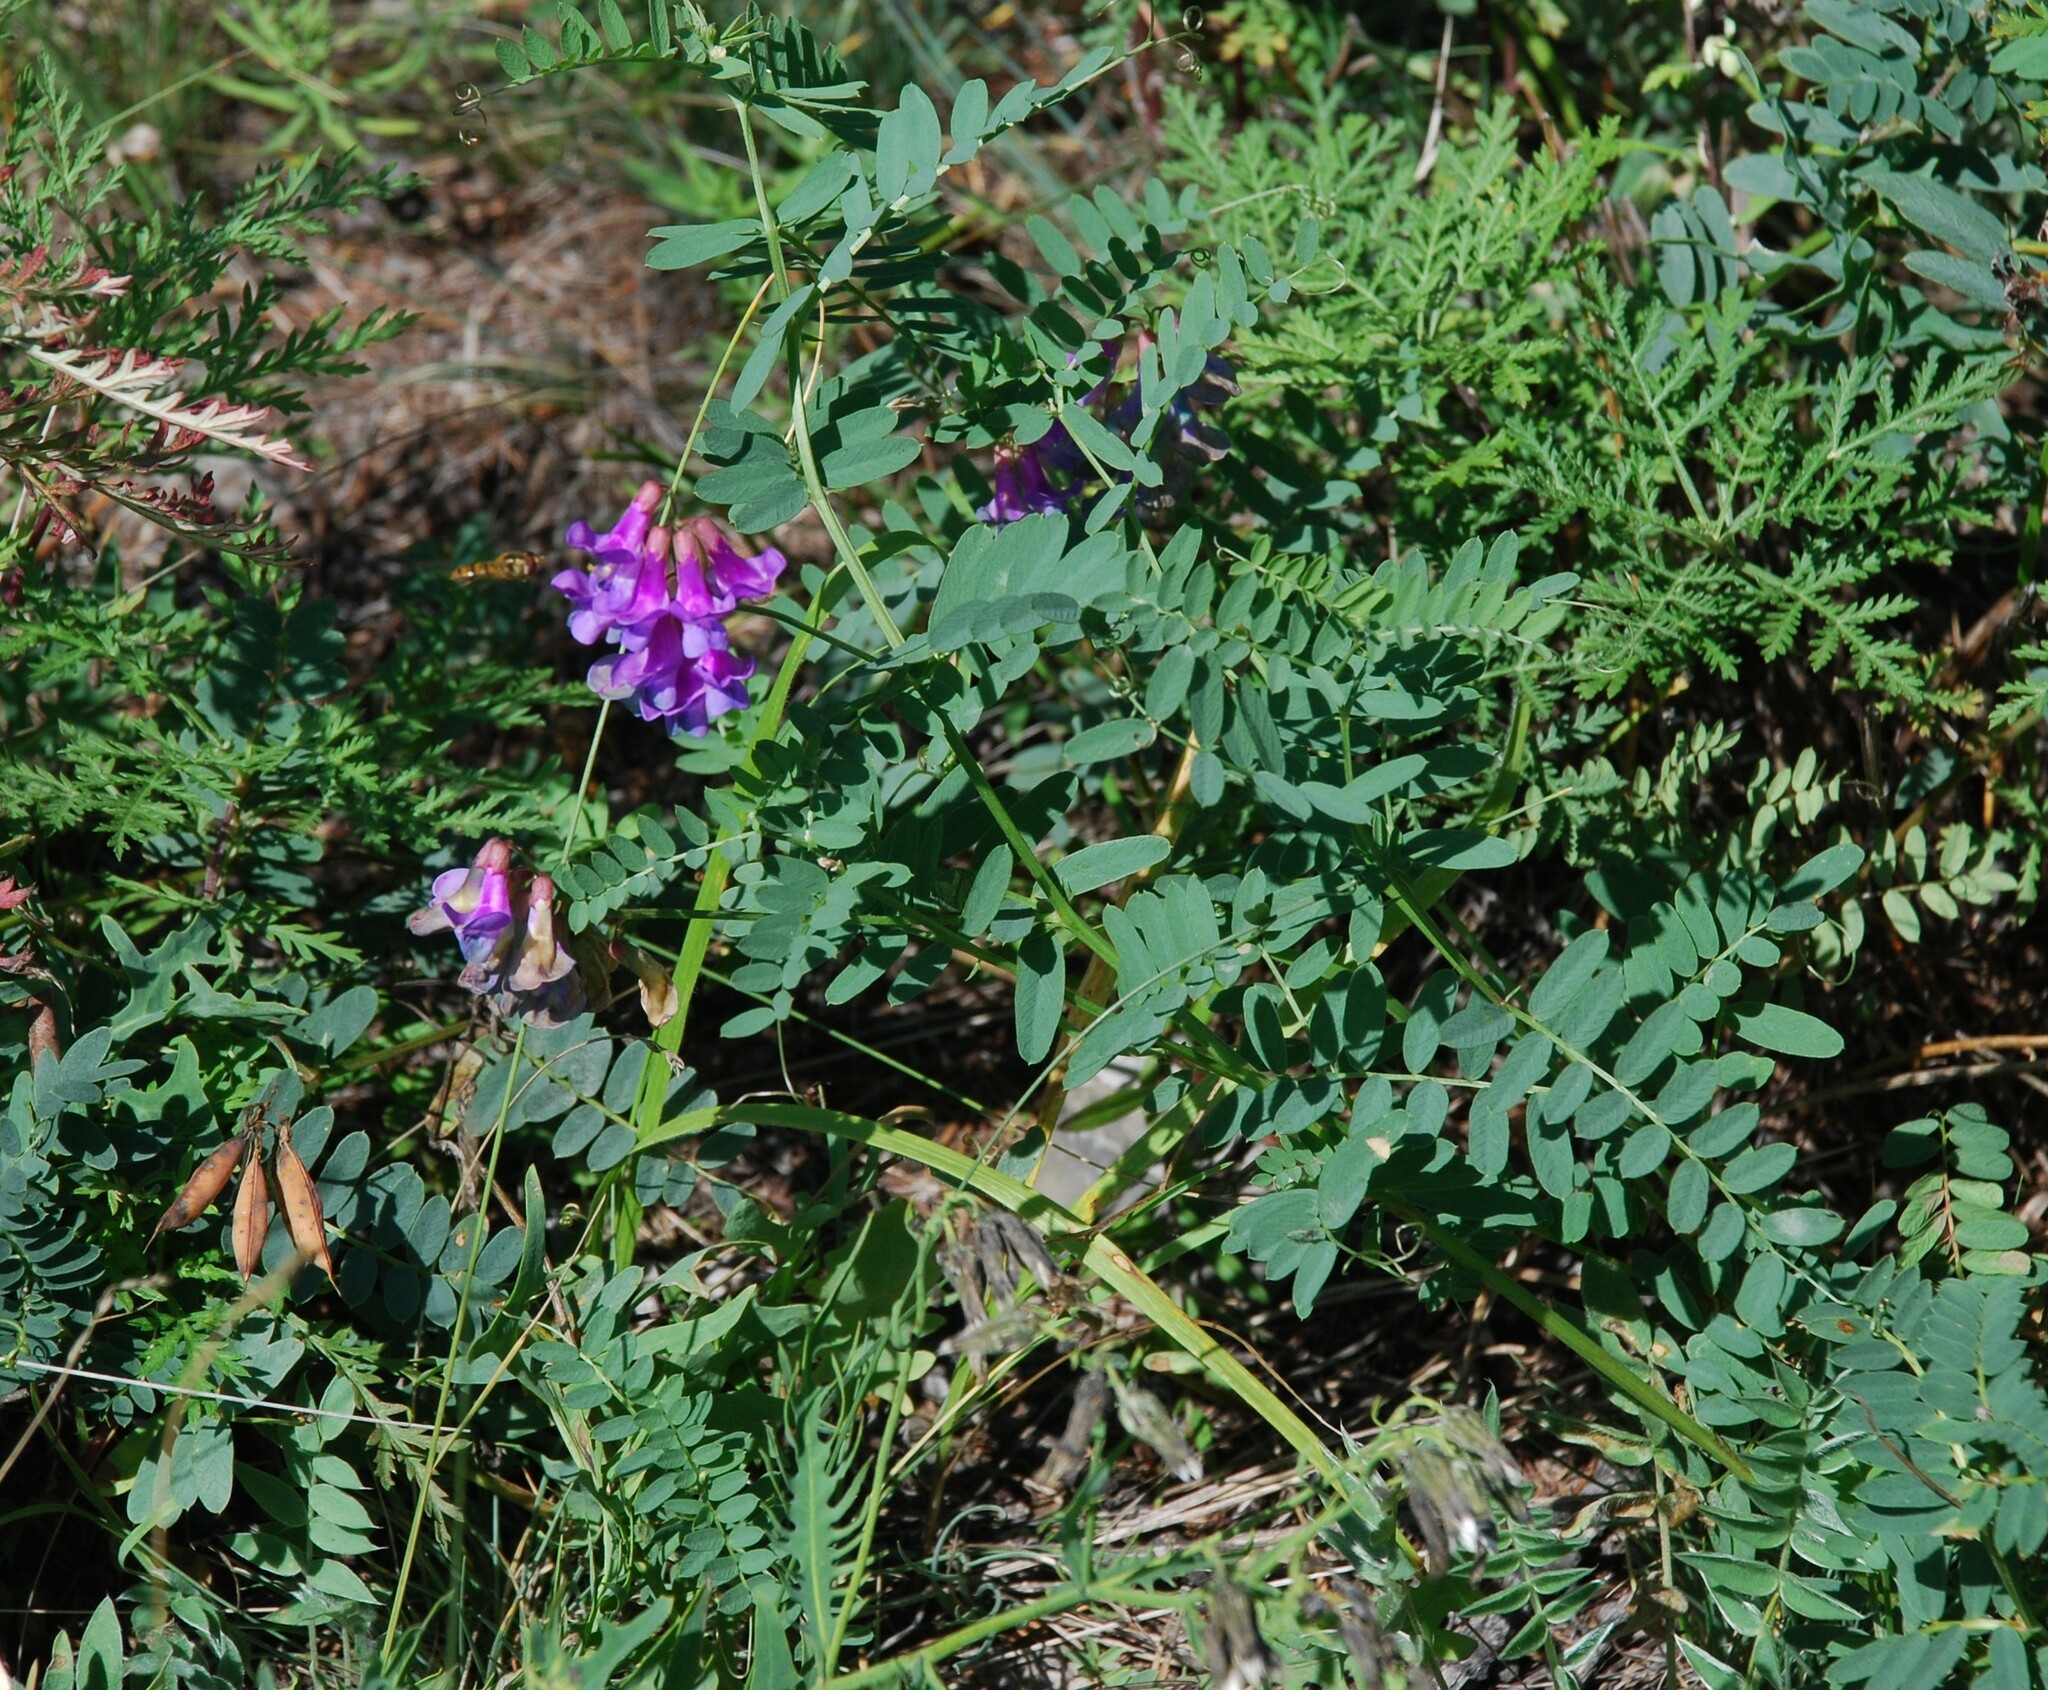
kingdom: Plantae
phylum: Tracheophyta
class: Magnoliopsida
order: Fabales
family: Fabaceae
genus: Vicia
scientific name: Vicia multicaulis
